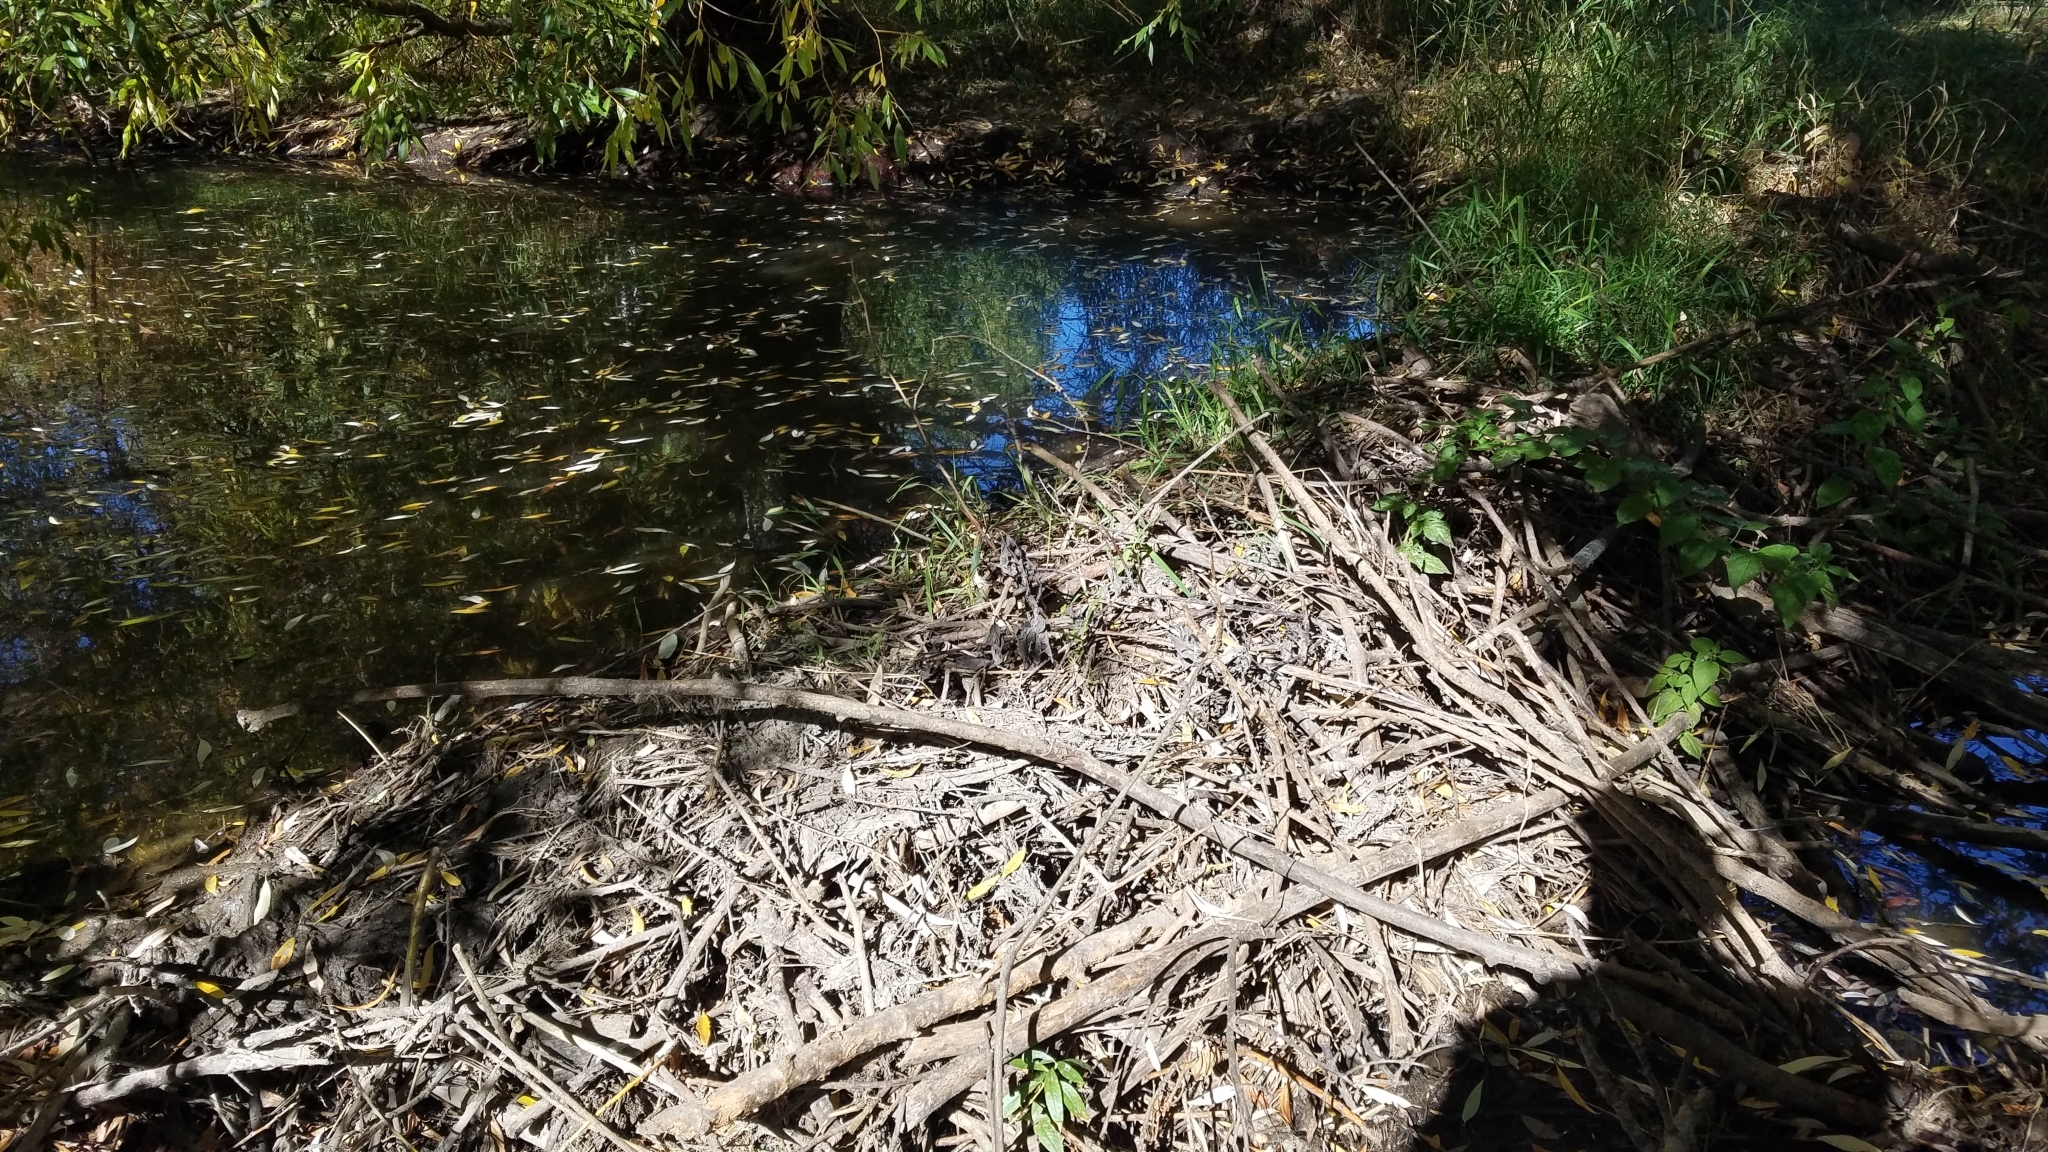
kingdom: Animalia
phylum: Chordata
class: Mammalia
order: Rodentia
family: Castoridae
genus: Castor
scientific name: Castor canadensis
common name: American beaver
